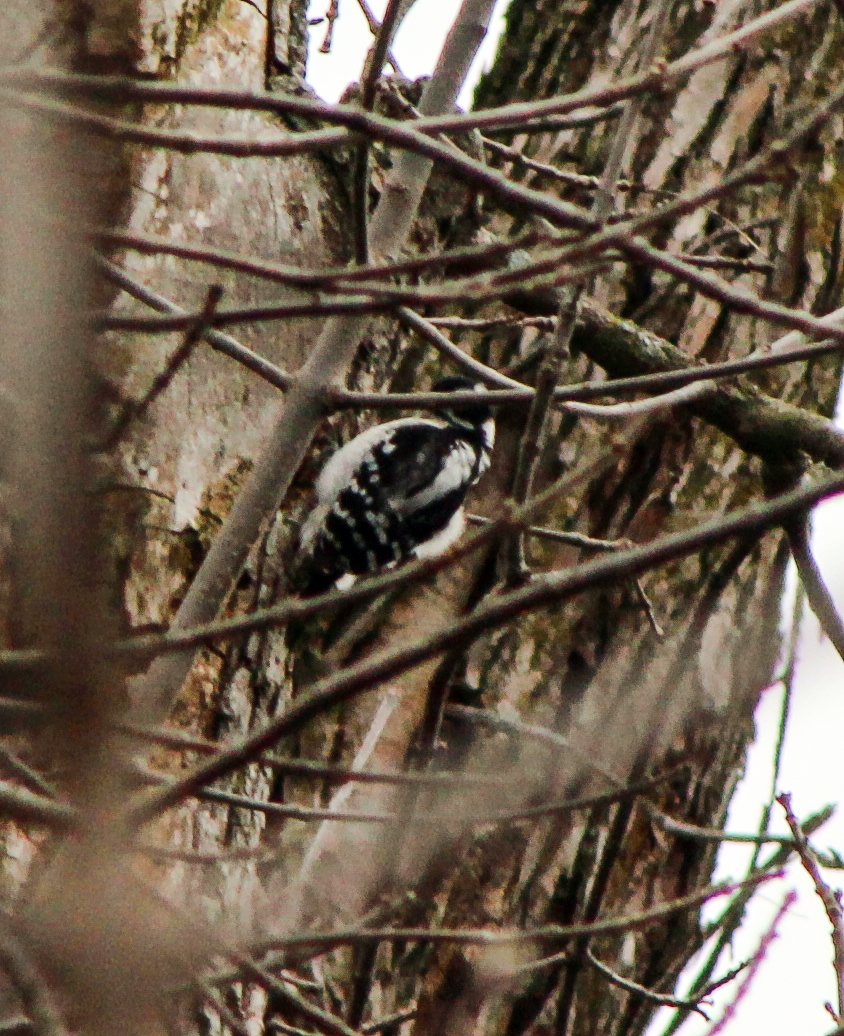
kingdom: Animalia
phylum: Chordata
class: Aves
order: Piciformes
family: Picidae
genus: Dryobates
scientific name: Dryobates pubescens
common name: Downy woodpecker
